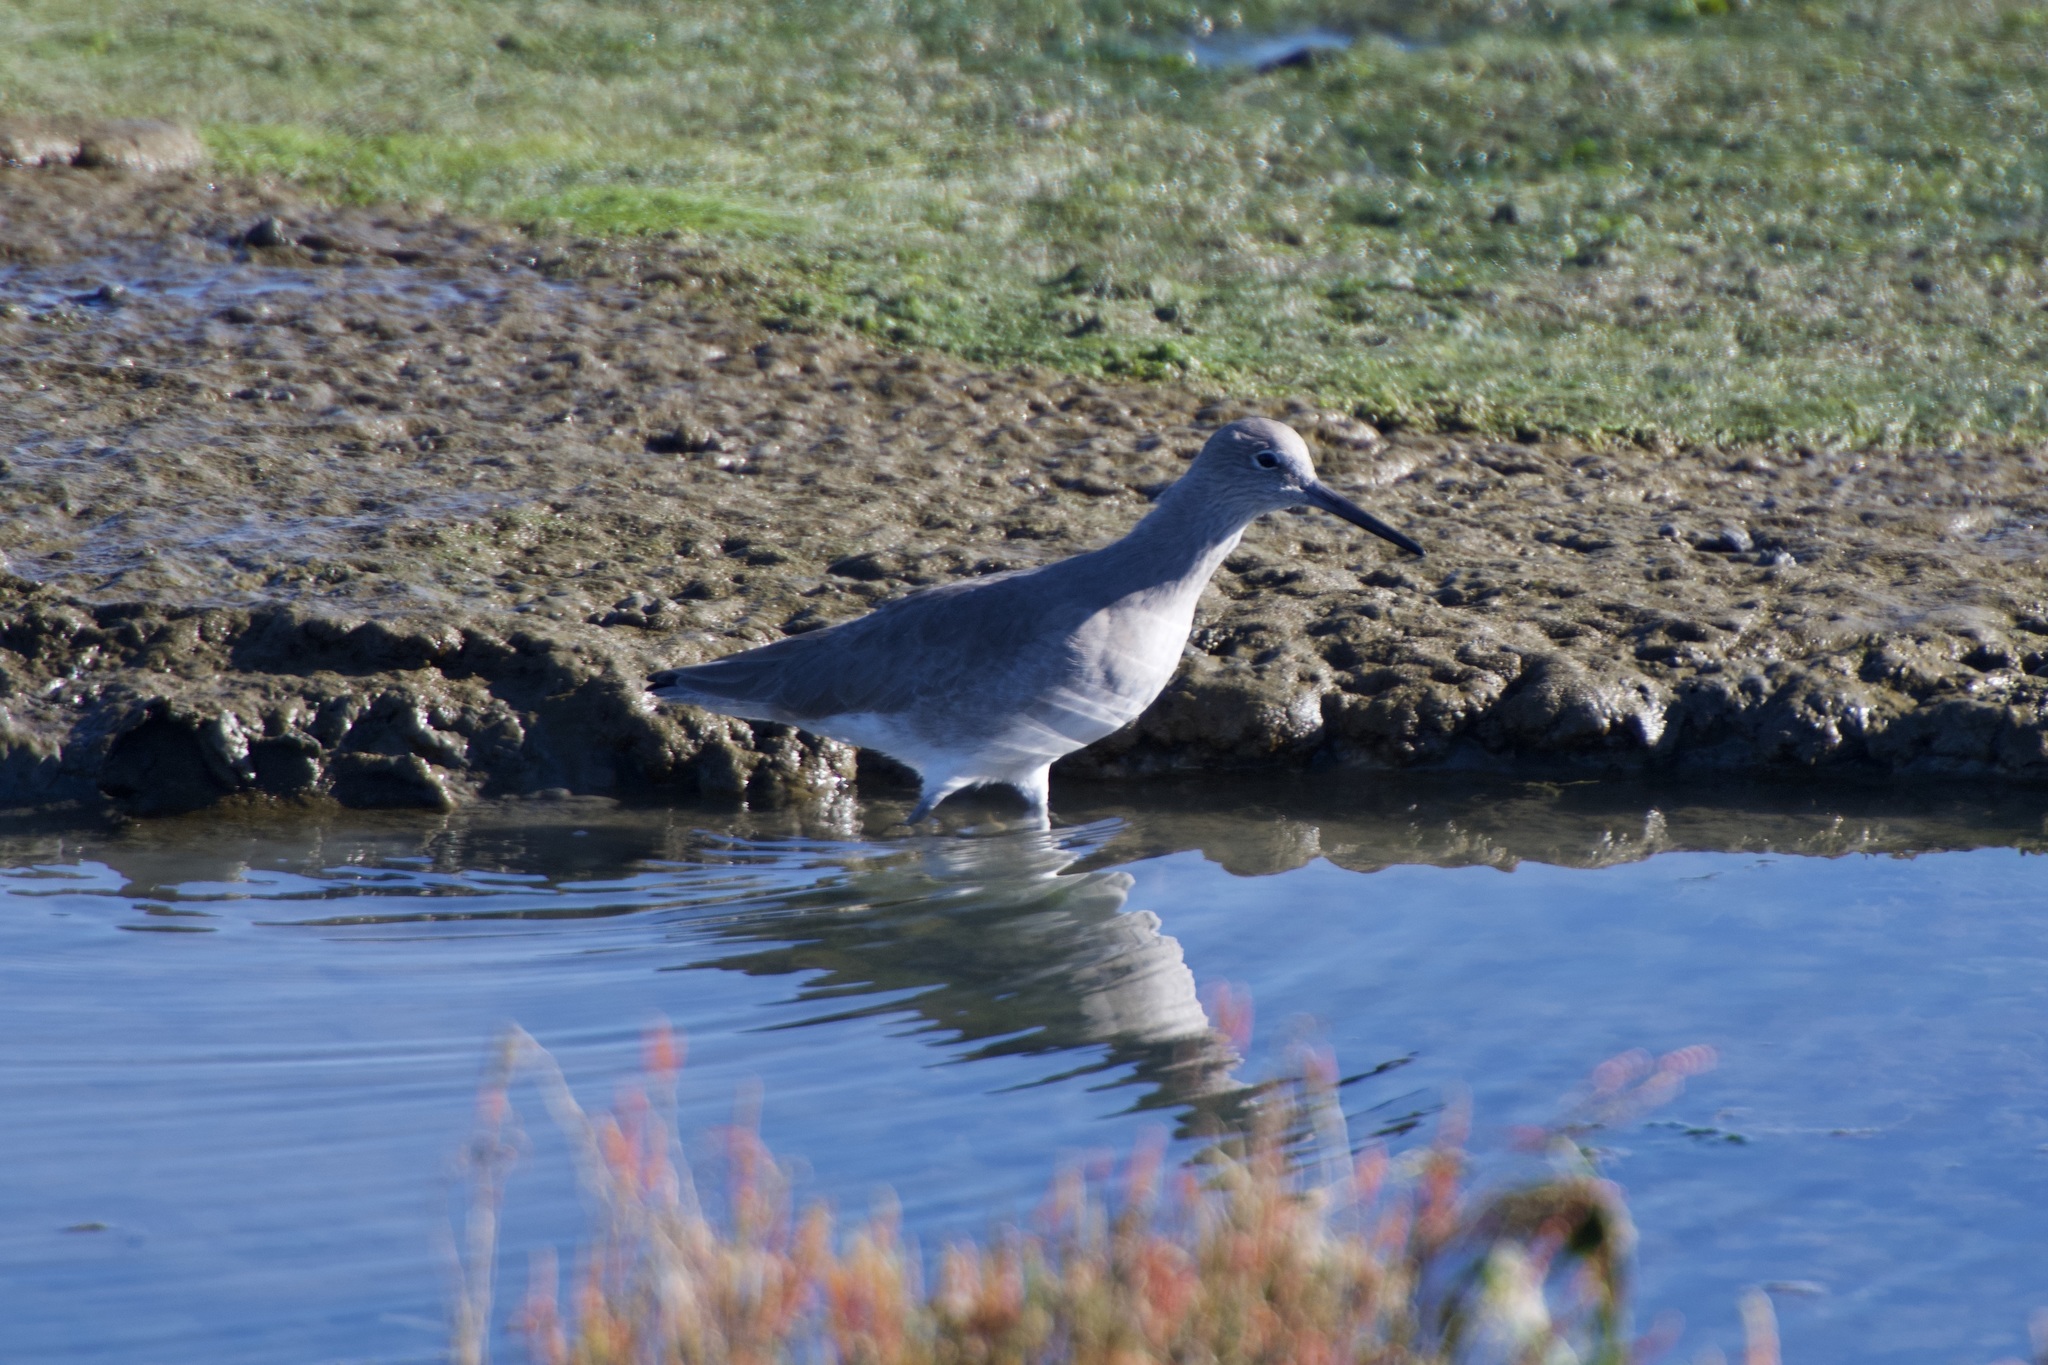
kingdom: Animalia
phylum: Chordata
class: Aves
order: Charadriiformes
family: Scolopacidae
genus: Tringa
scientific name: Tringa semipalmata
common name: Willet
